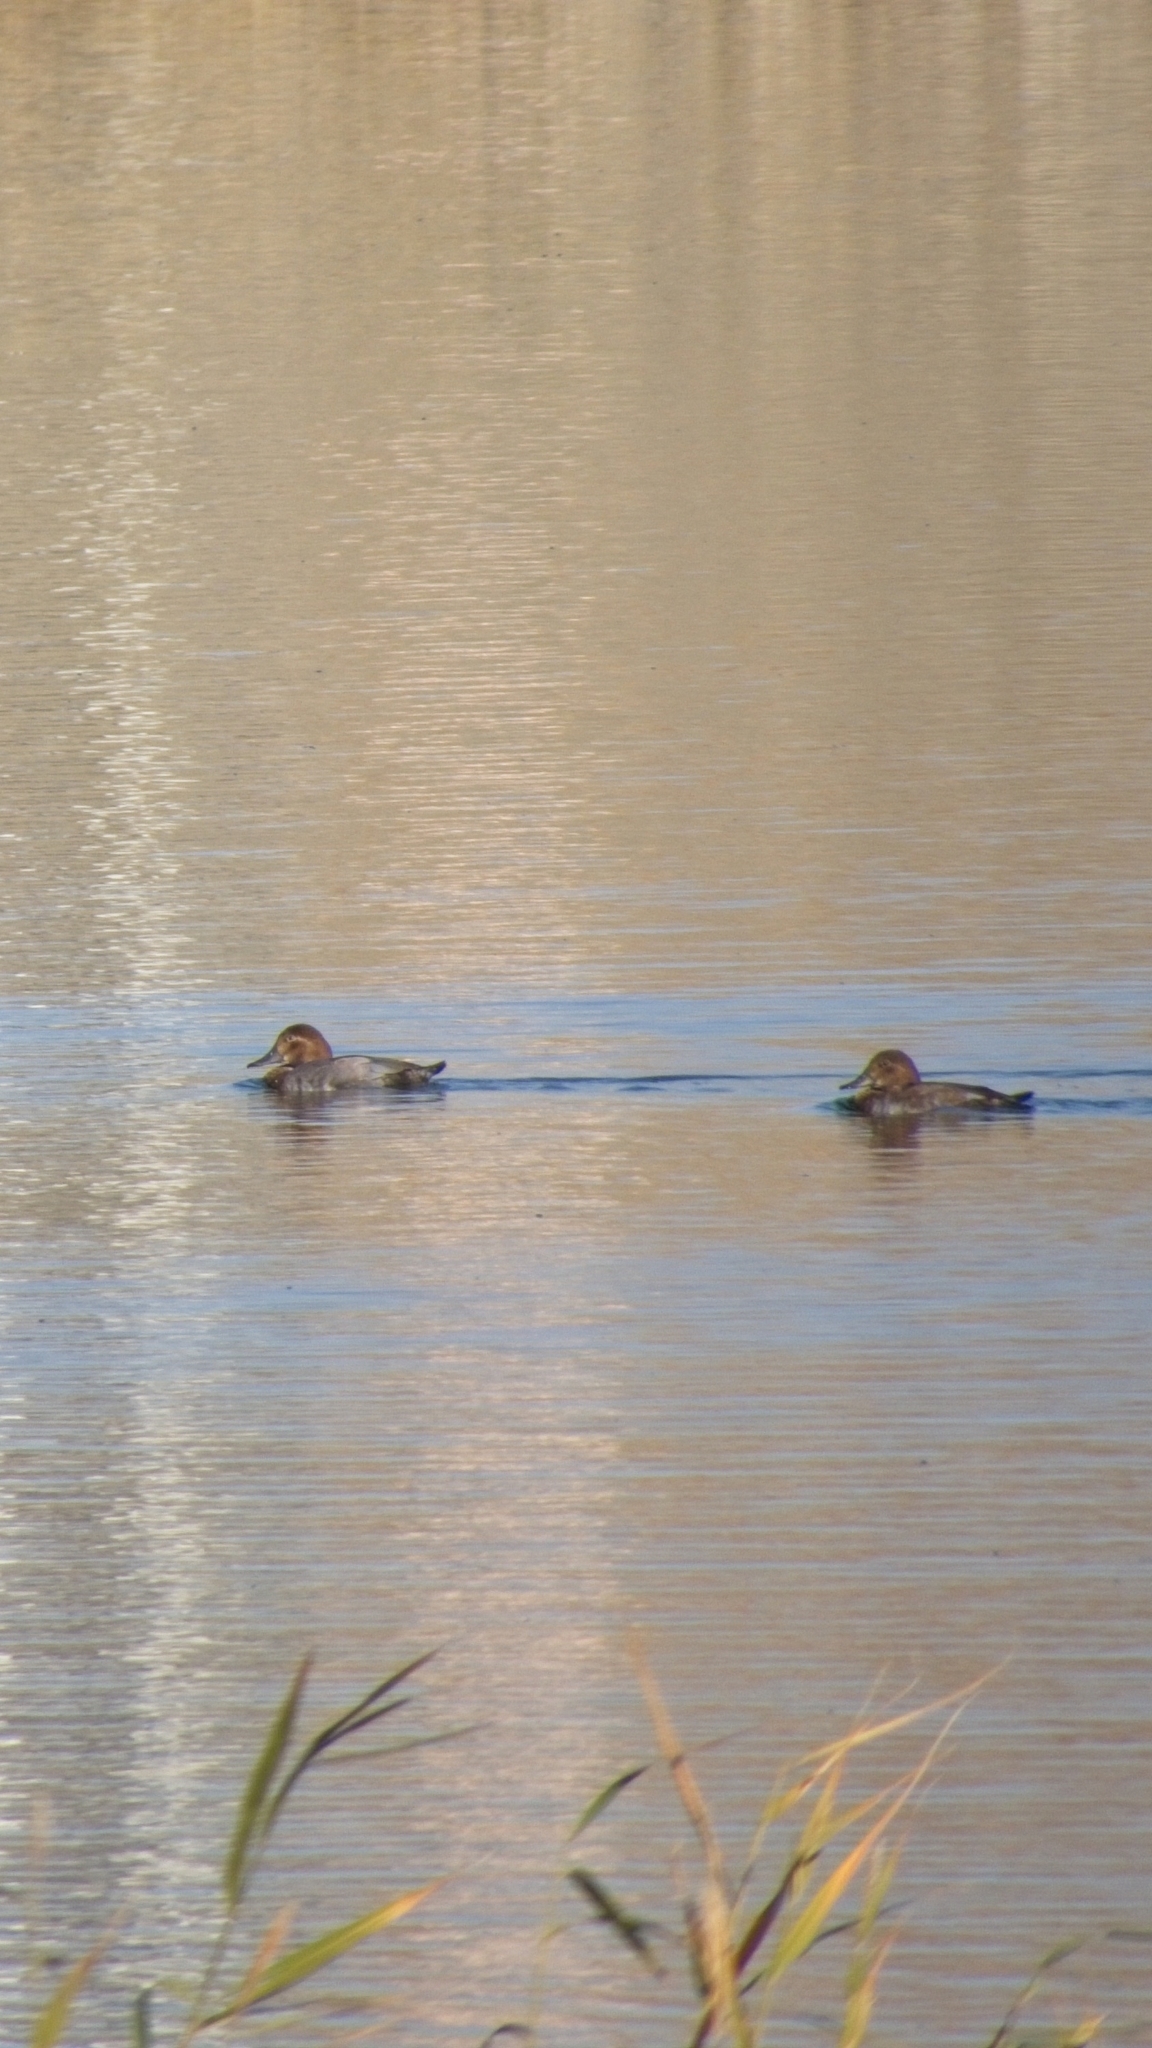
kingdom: Animalia
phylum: Chordata
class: Aves
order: Anseriformes
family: Anatidae
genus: Aythya
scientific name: Aythya ferina
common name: Common pochard
